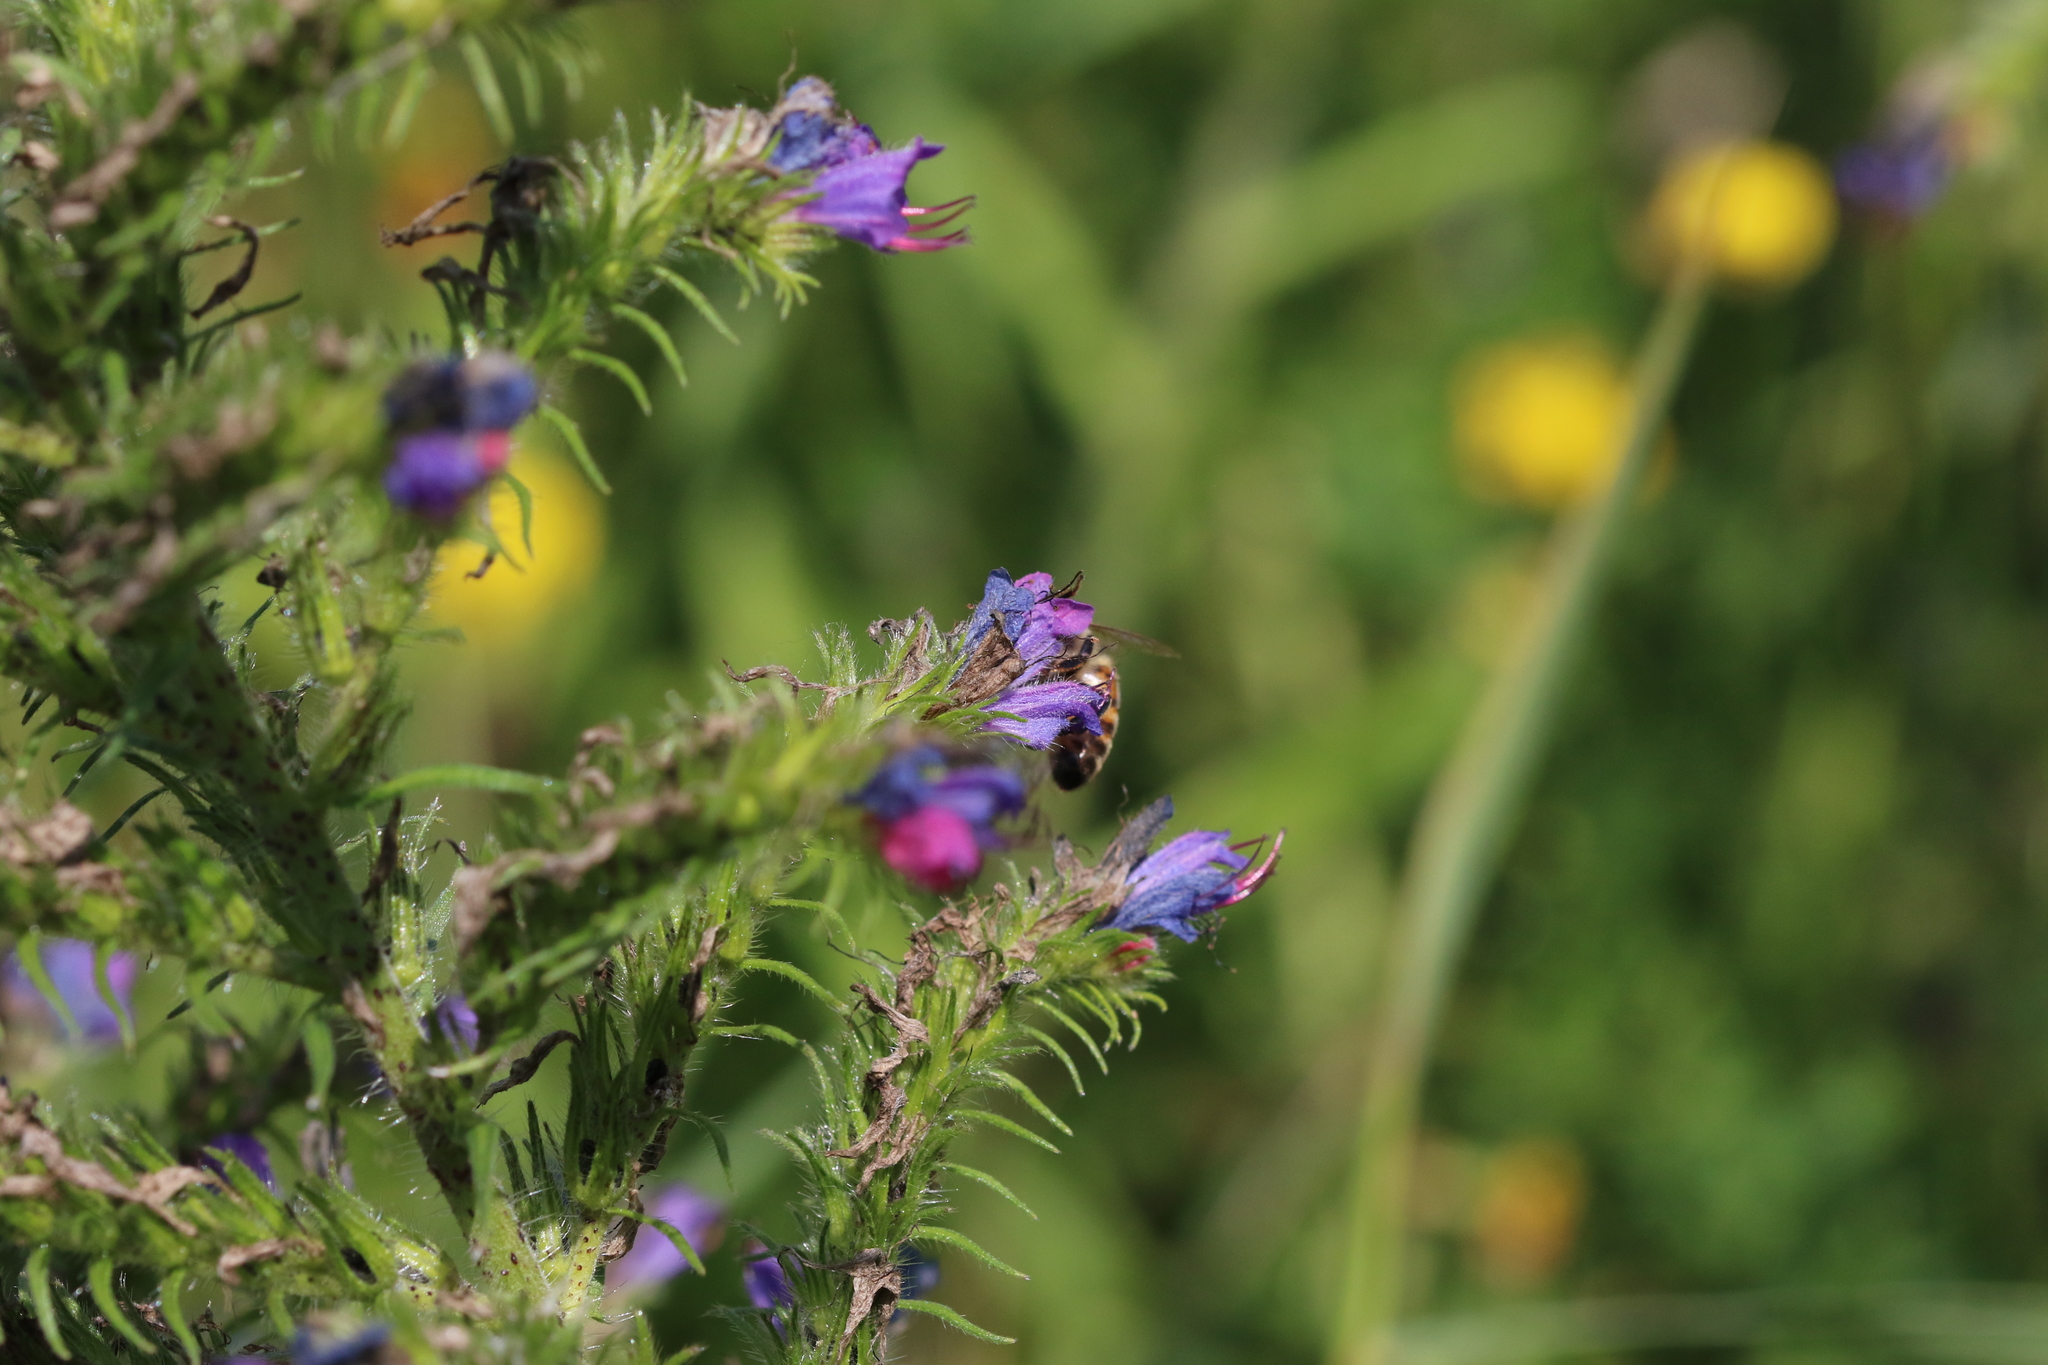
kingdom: Animalia
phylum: Arthropoda
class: Insecta
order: Hymenoptera
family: Apidae
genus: Apis
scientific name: Apis mellifera
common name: Honey bee
